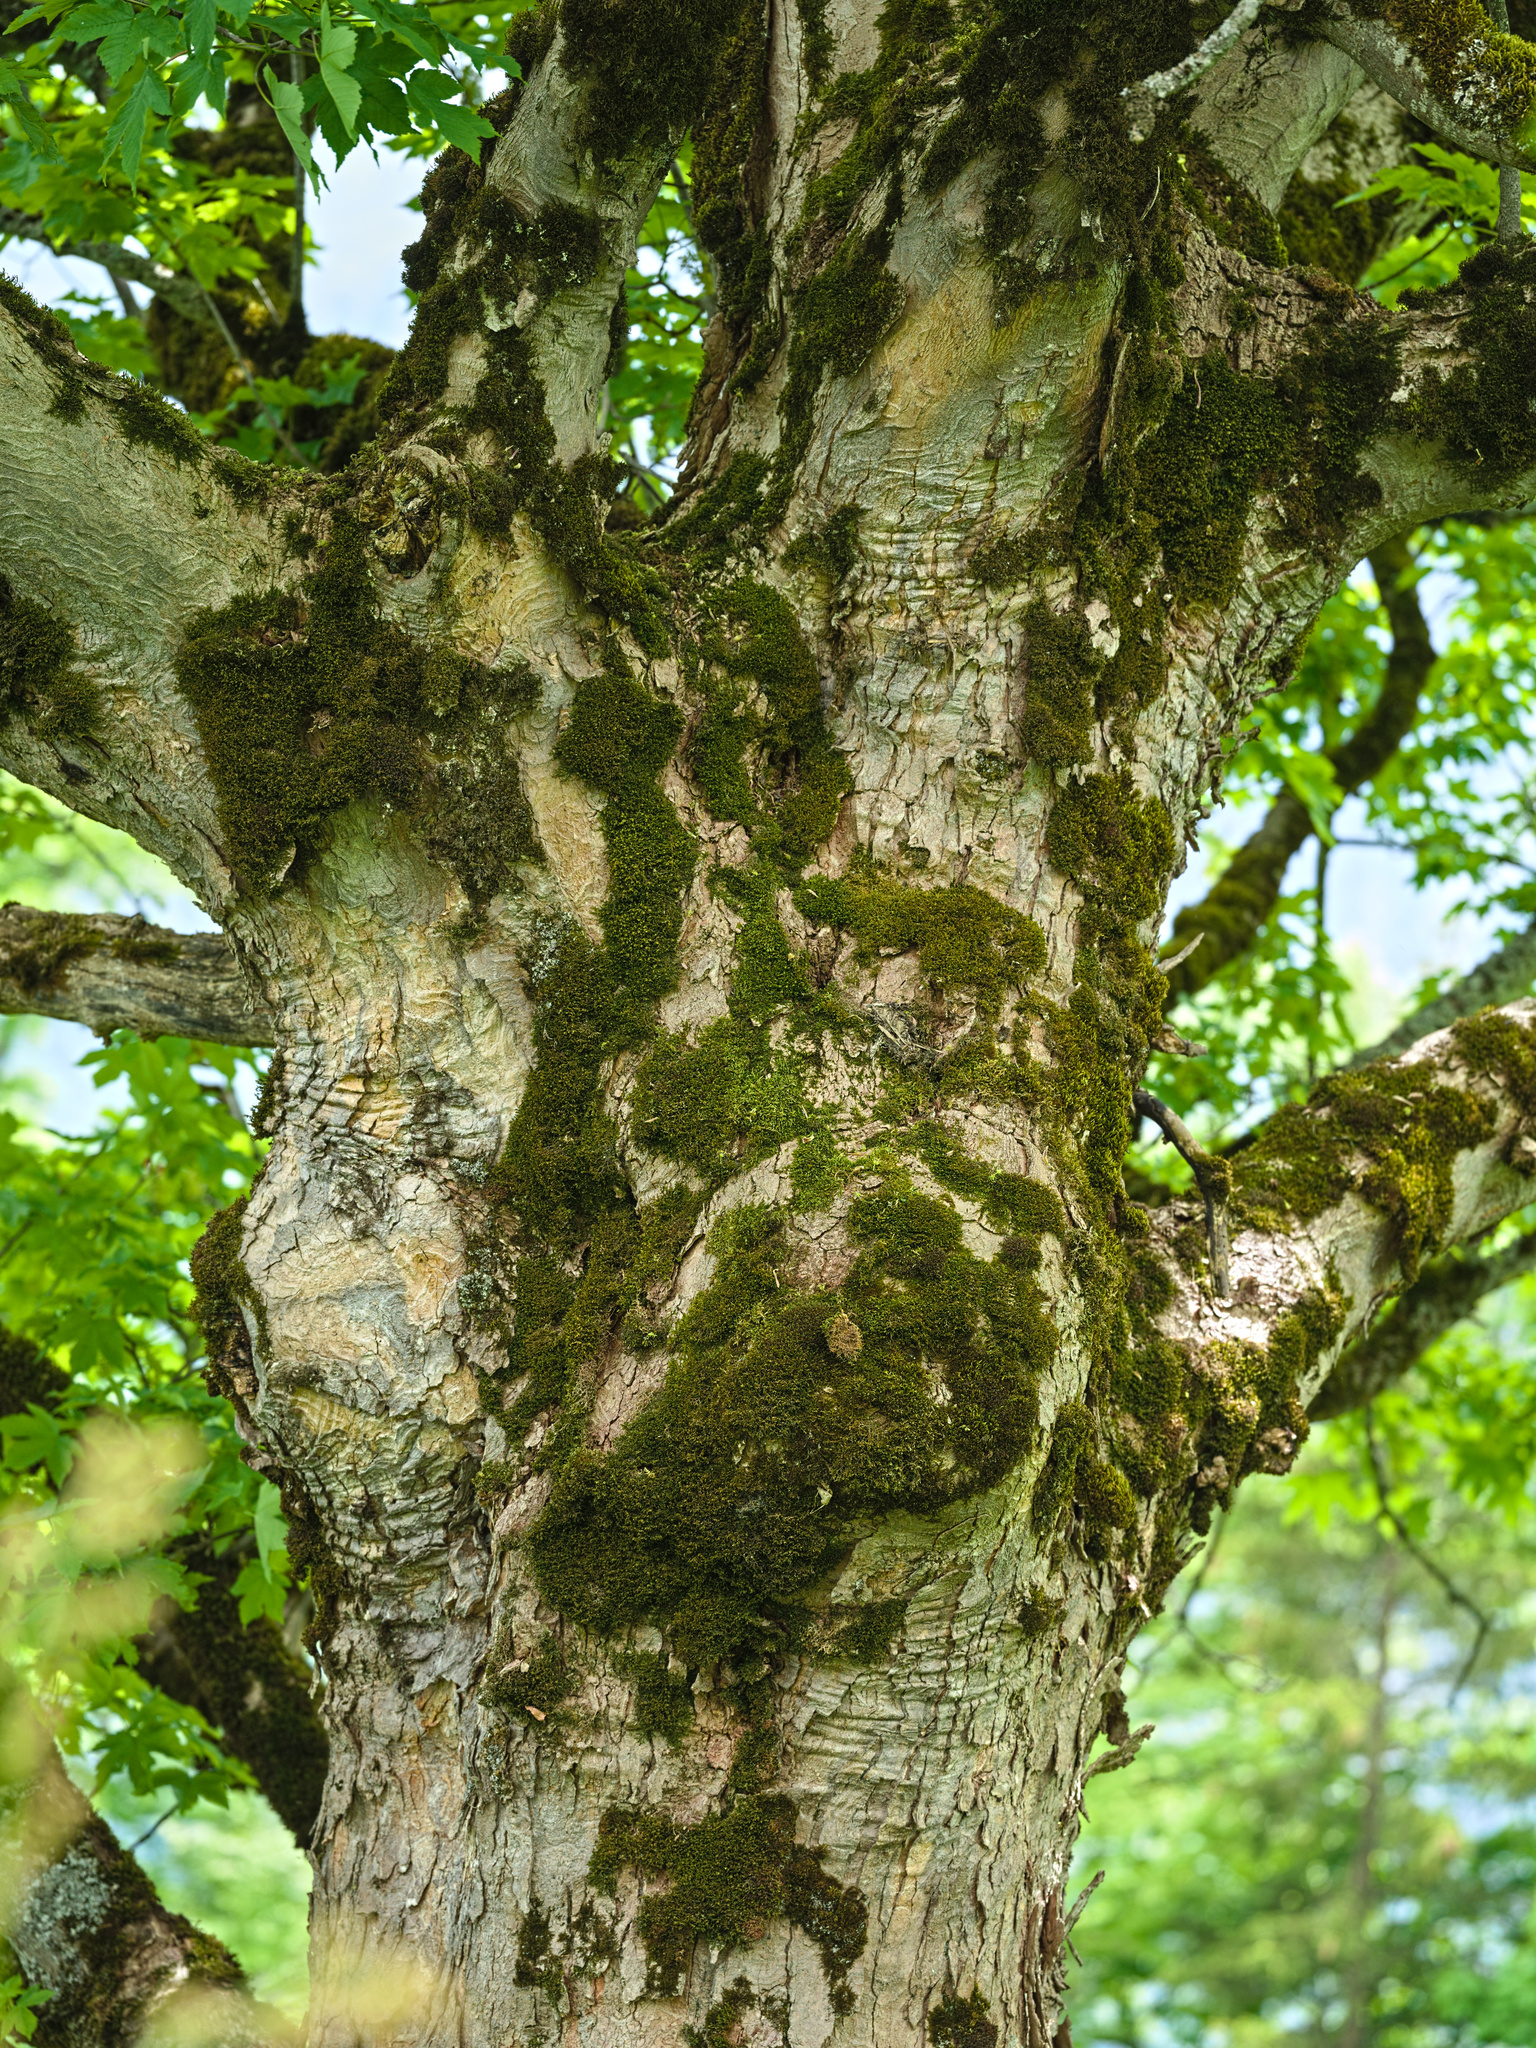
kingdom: Plantae
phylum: Tracheophyta
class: Magnoliopsida
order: Sapindales
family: Sapindaceae
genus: Acer
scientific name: Acer pseudoplatanus
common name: Sycamore
